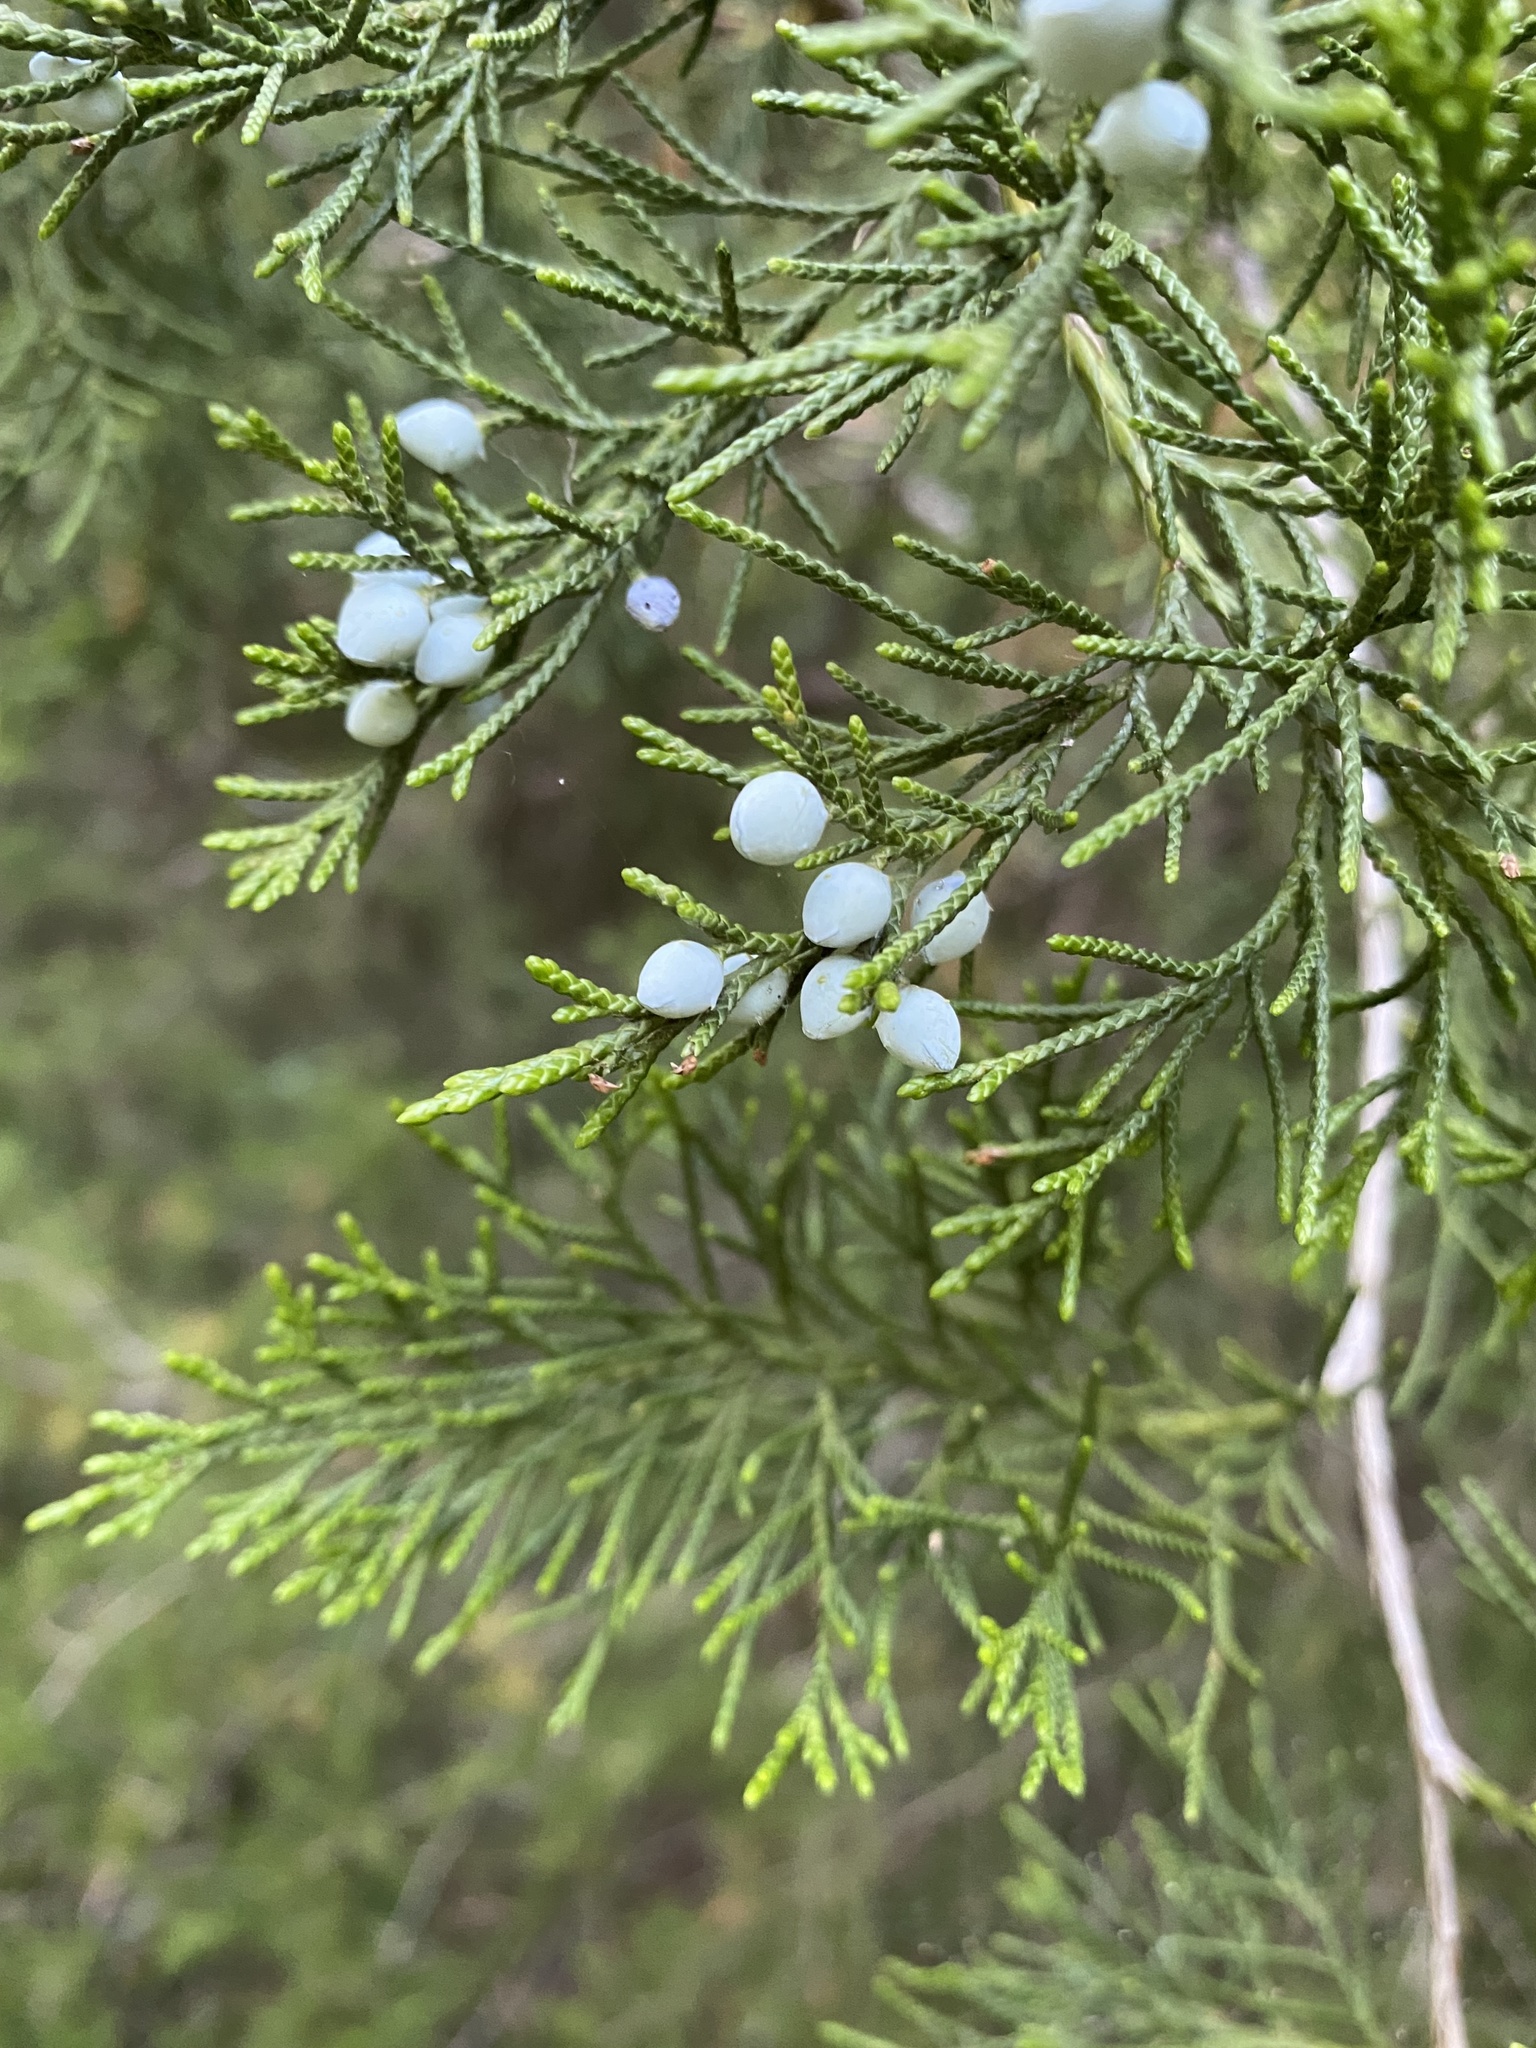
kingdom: Plantae
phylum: Tracheophyta
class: Pinopsida
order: Pinales
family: Cupressaceae
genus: Juniperus
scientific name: Juniperus virginiana
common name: Red juniper
